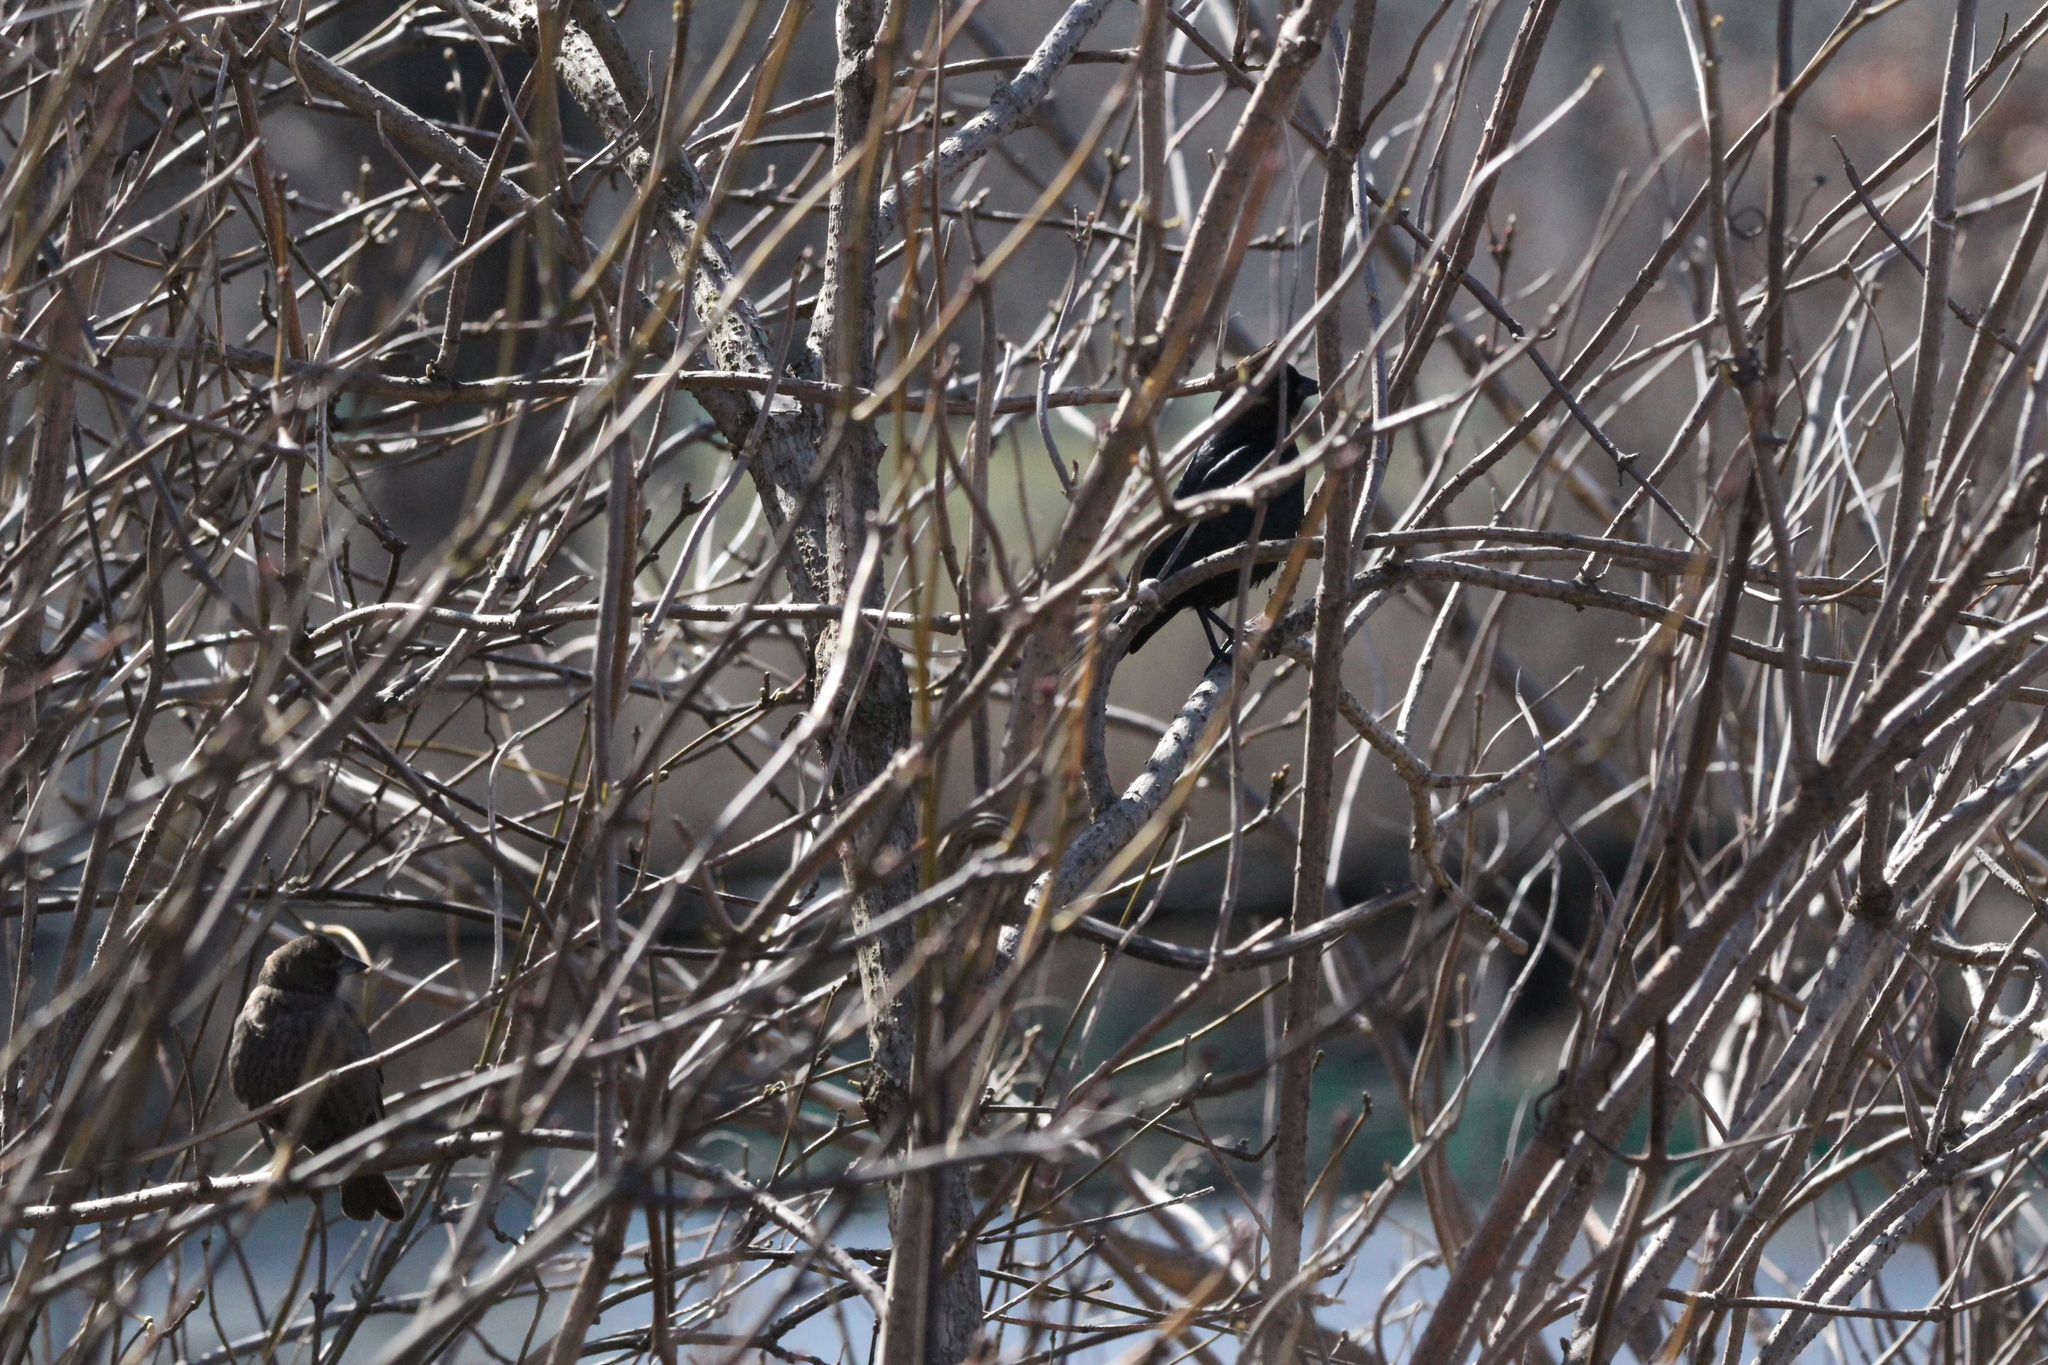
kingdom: Animalia
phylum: Chordata
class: Aves
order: Passeriformes
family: Icteridae
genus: Molothrus
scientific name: Molothrus ater
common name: Brown-headed cowbird
